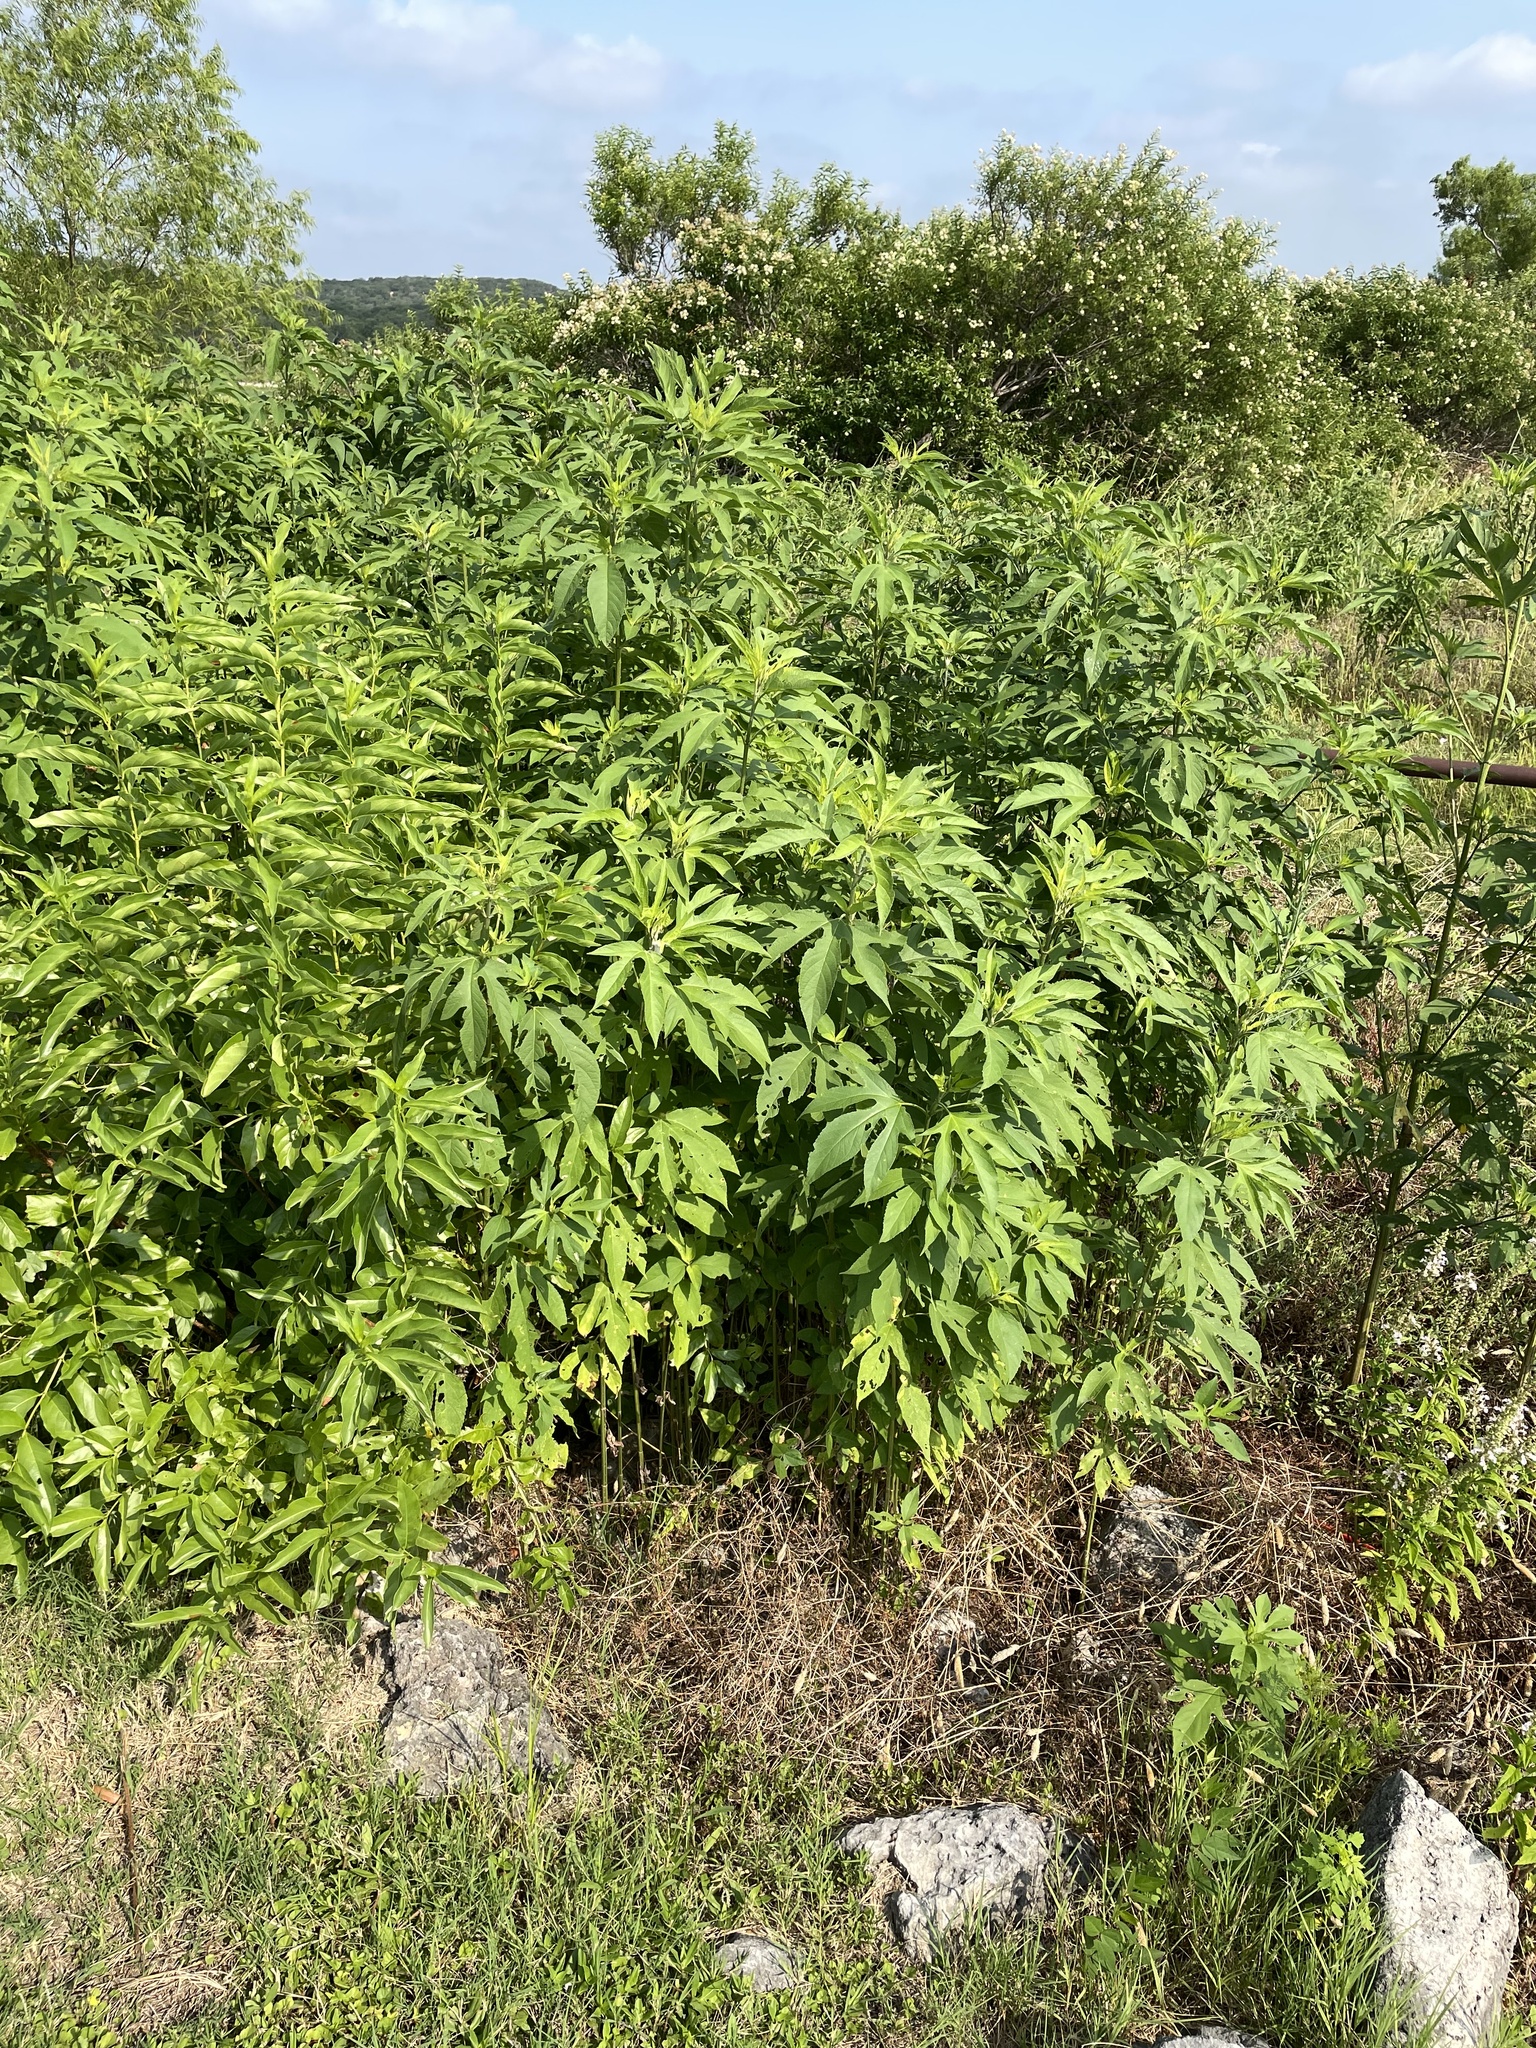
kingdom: Plantae
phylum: Tracheophyta
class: Magnoliopsida
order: Asterales
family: Asteraceae
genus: Ambrosia
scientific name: Ambrosia trifida
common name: Giant ragweed
